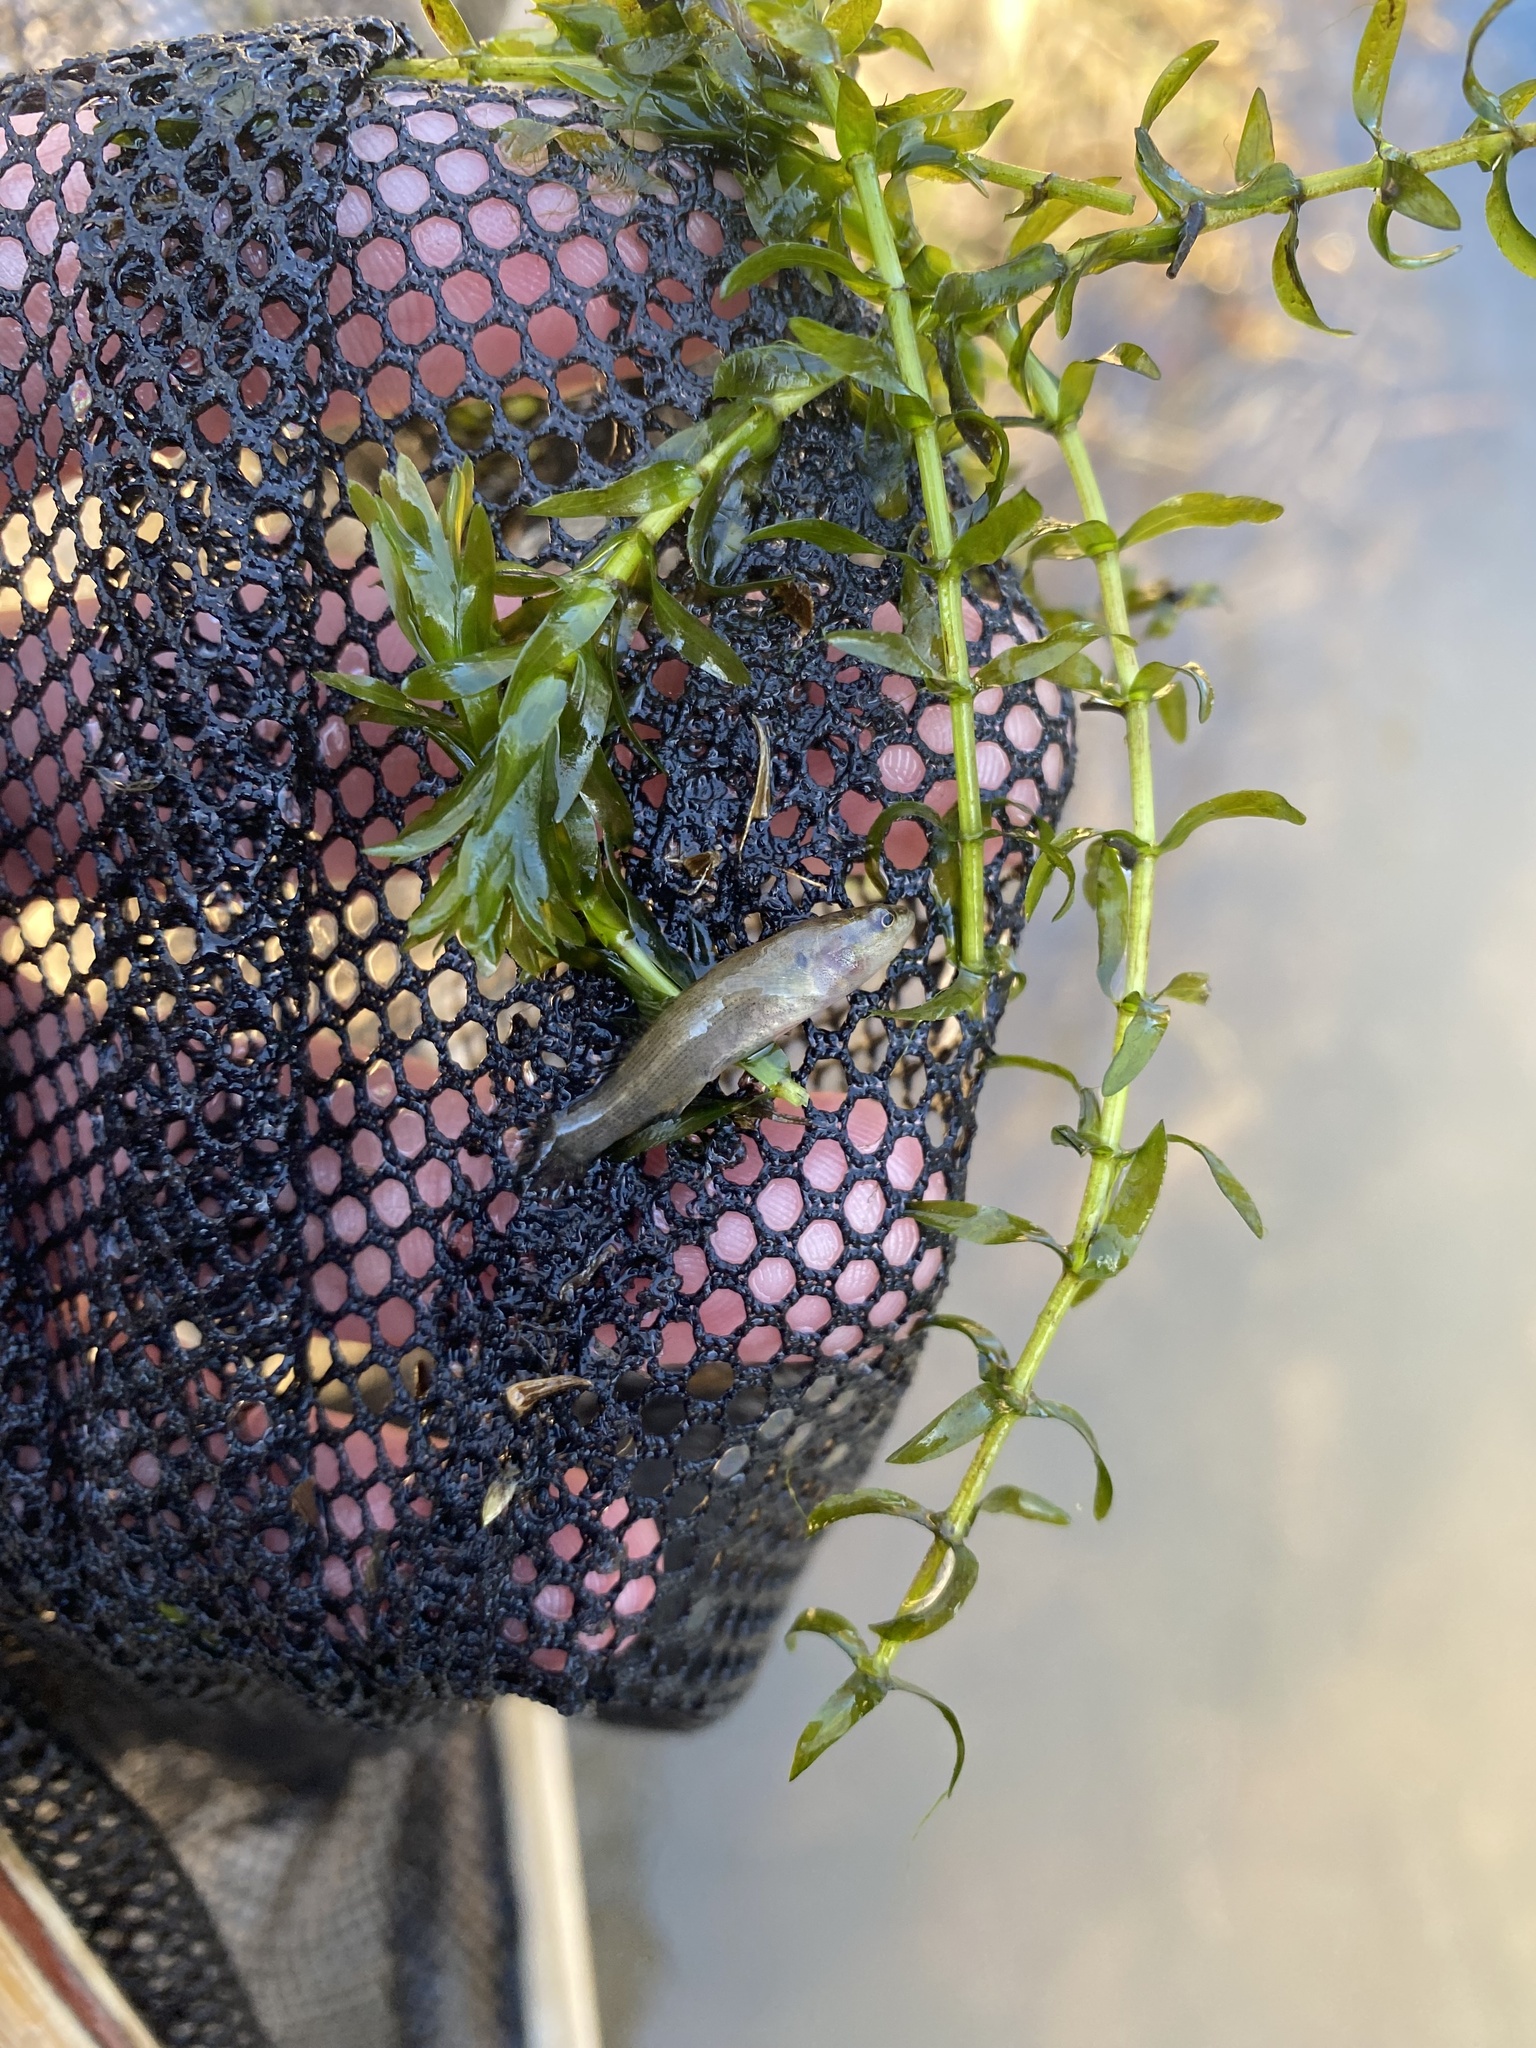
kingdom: Animalia
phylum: Chordata
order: Perciformes
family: Percidae
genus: Etheostoma
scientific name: Etheostoma flabellare
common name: Fantail darter
